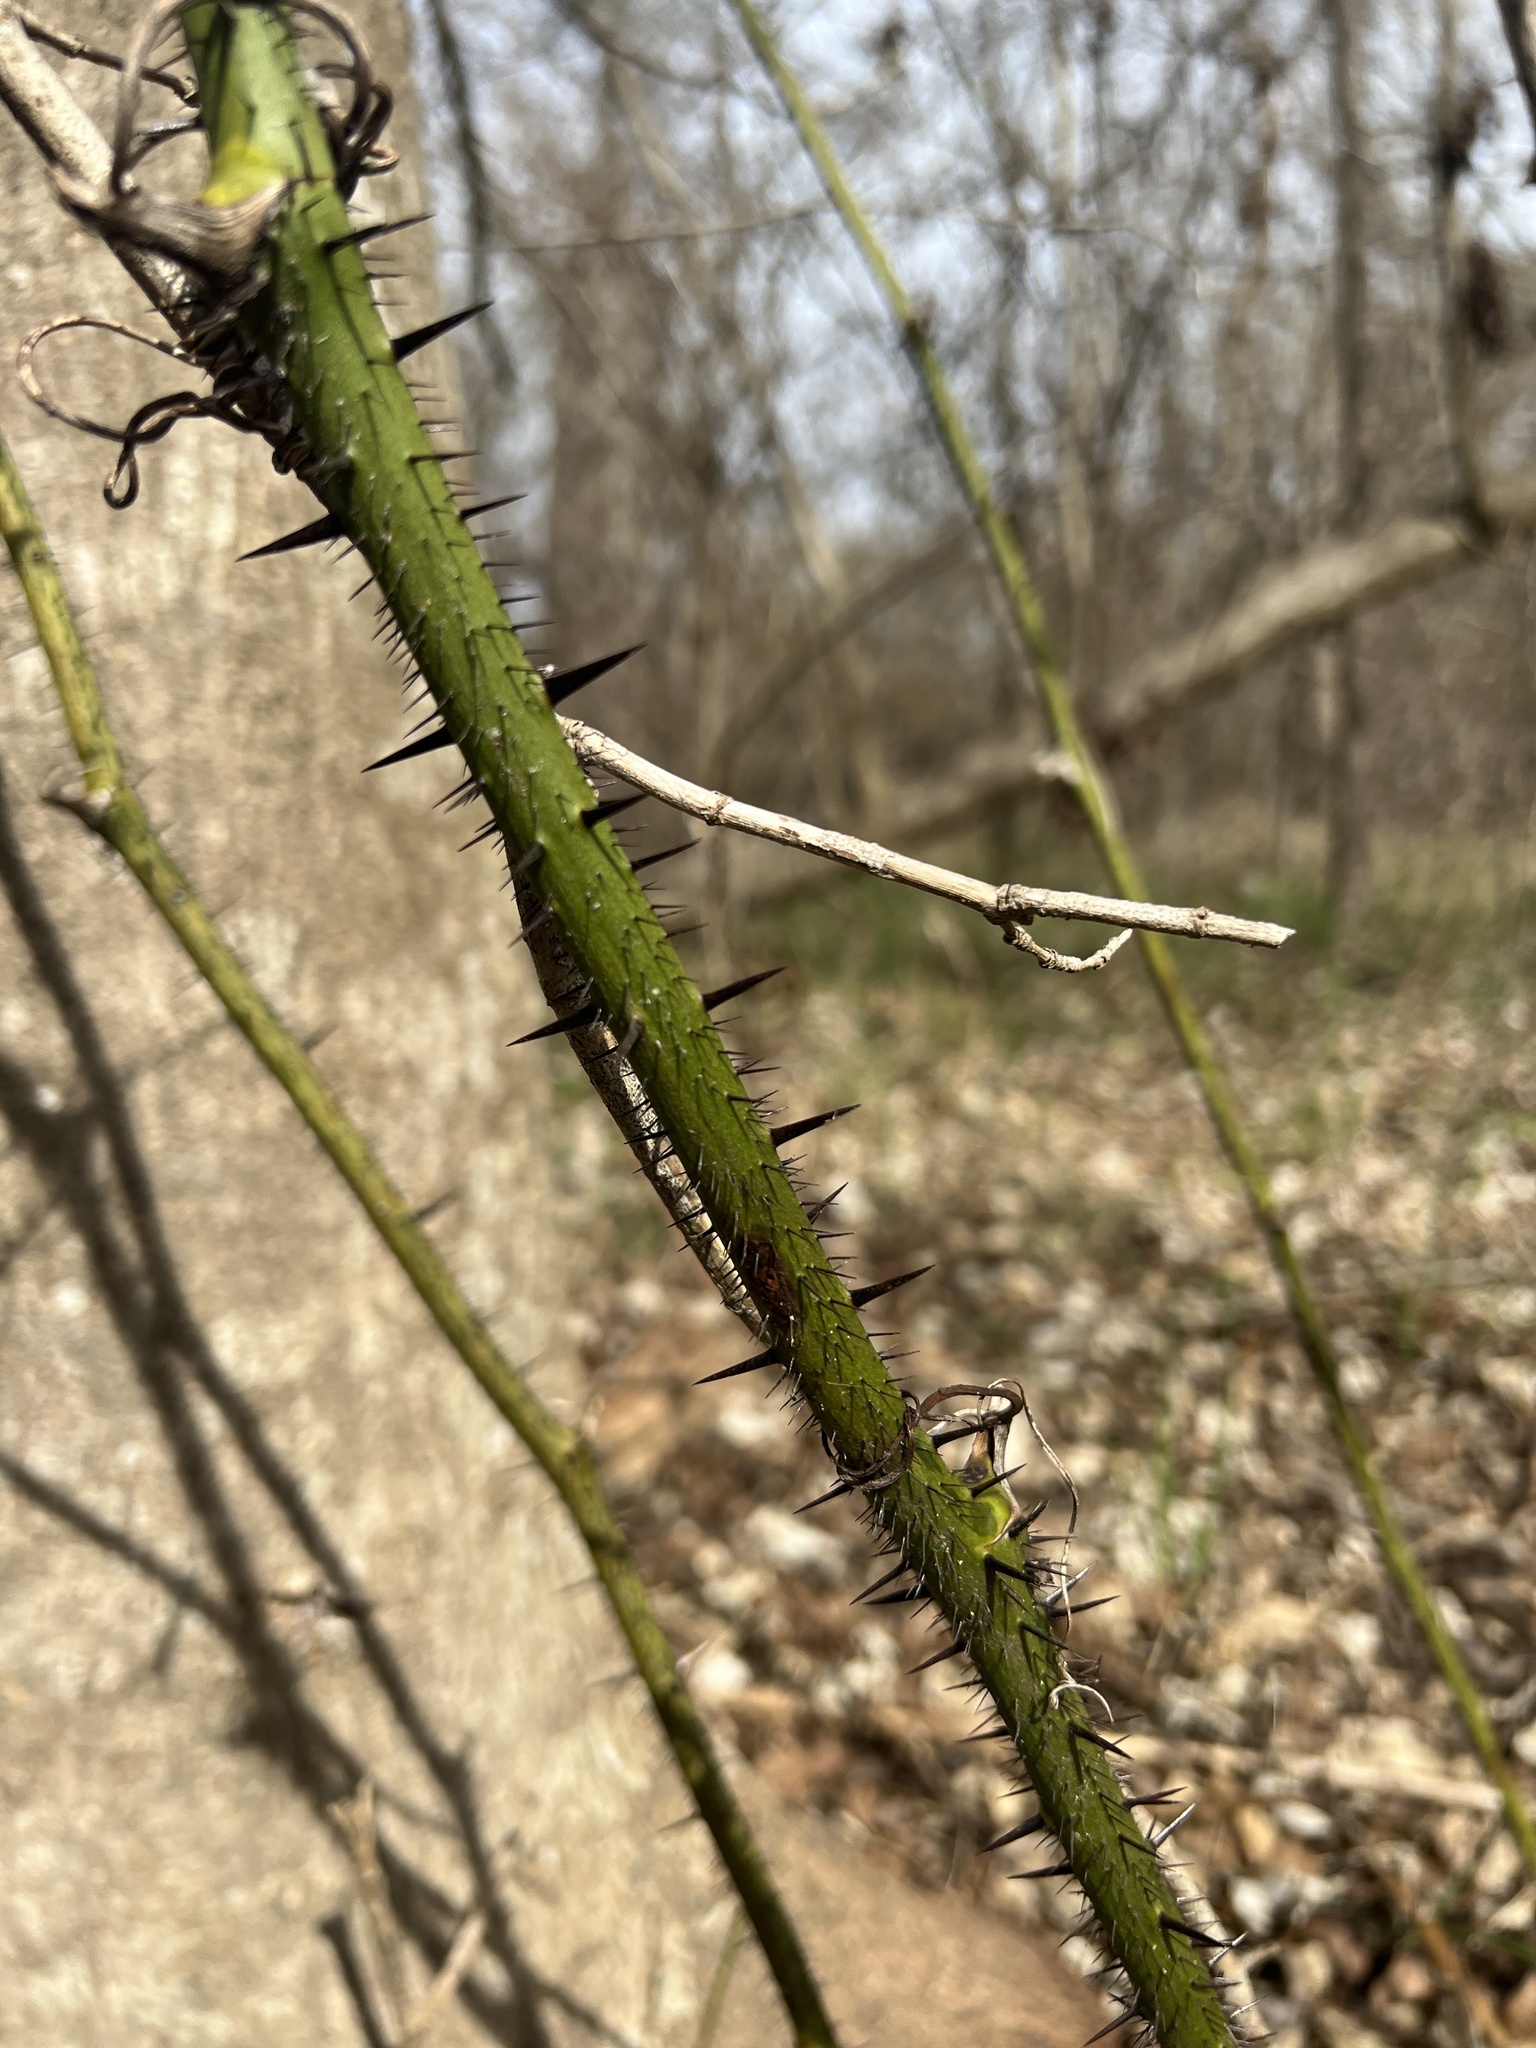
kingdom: Plantae
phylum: Tracheophyta
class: Liliopsida
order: Liliales
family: Smilacaceae
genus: Smilax
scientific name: Smilax tamnoides
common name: Hellfetter
